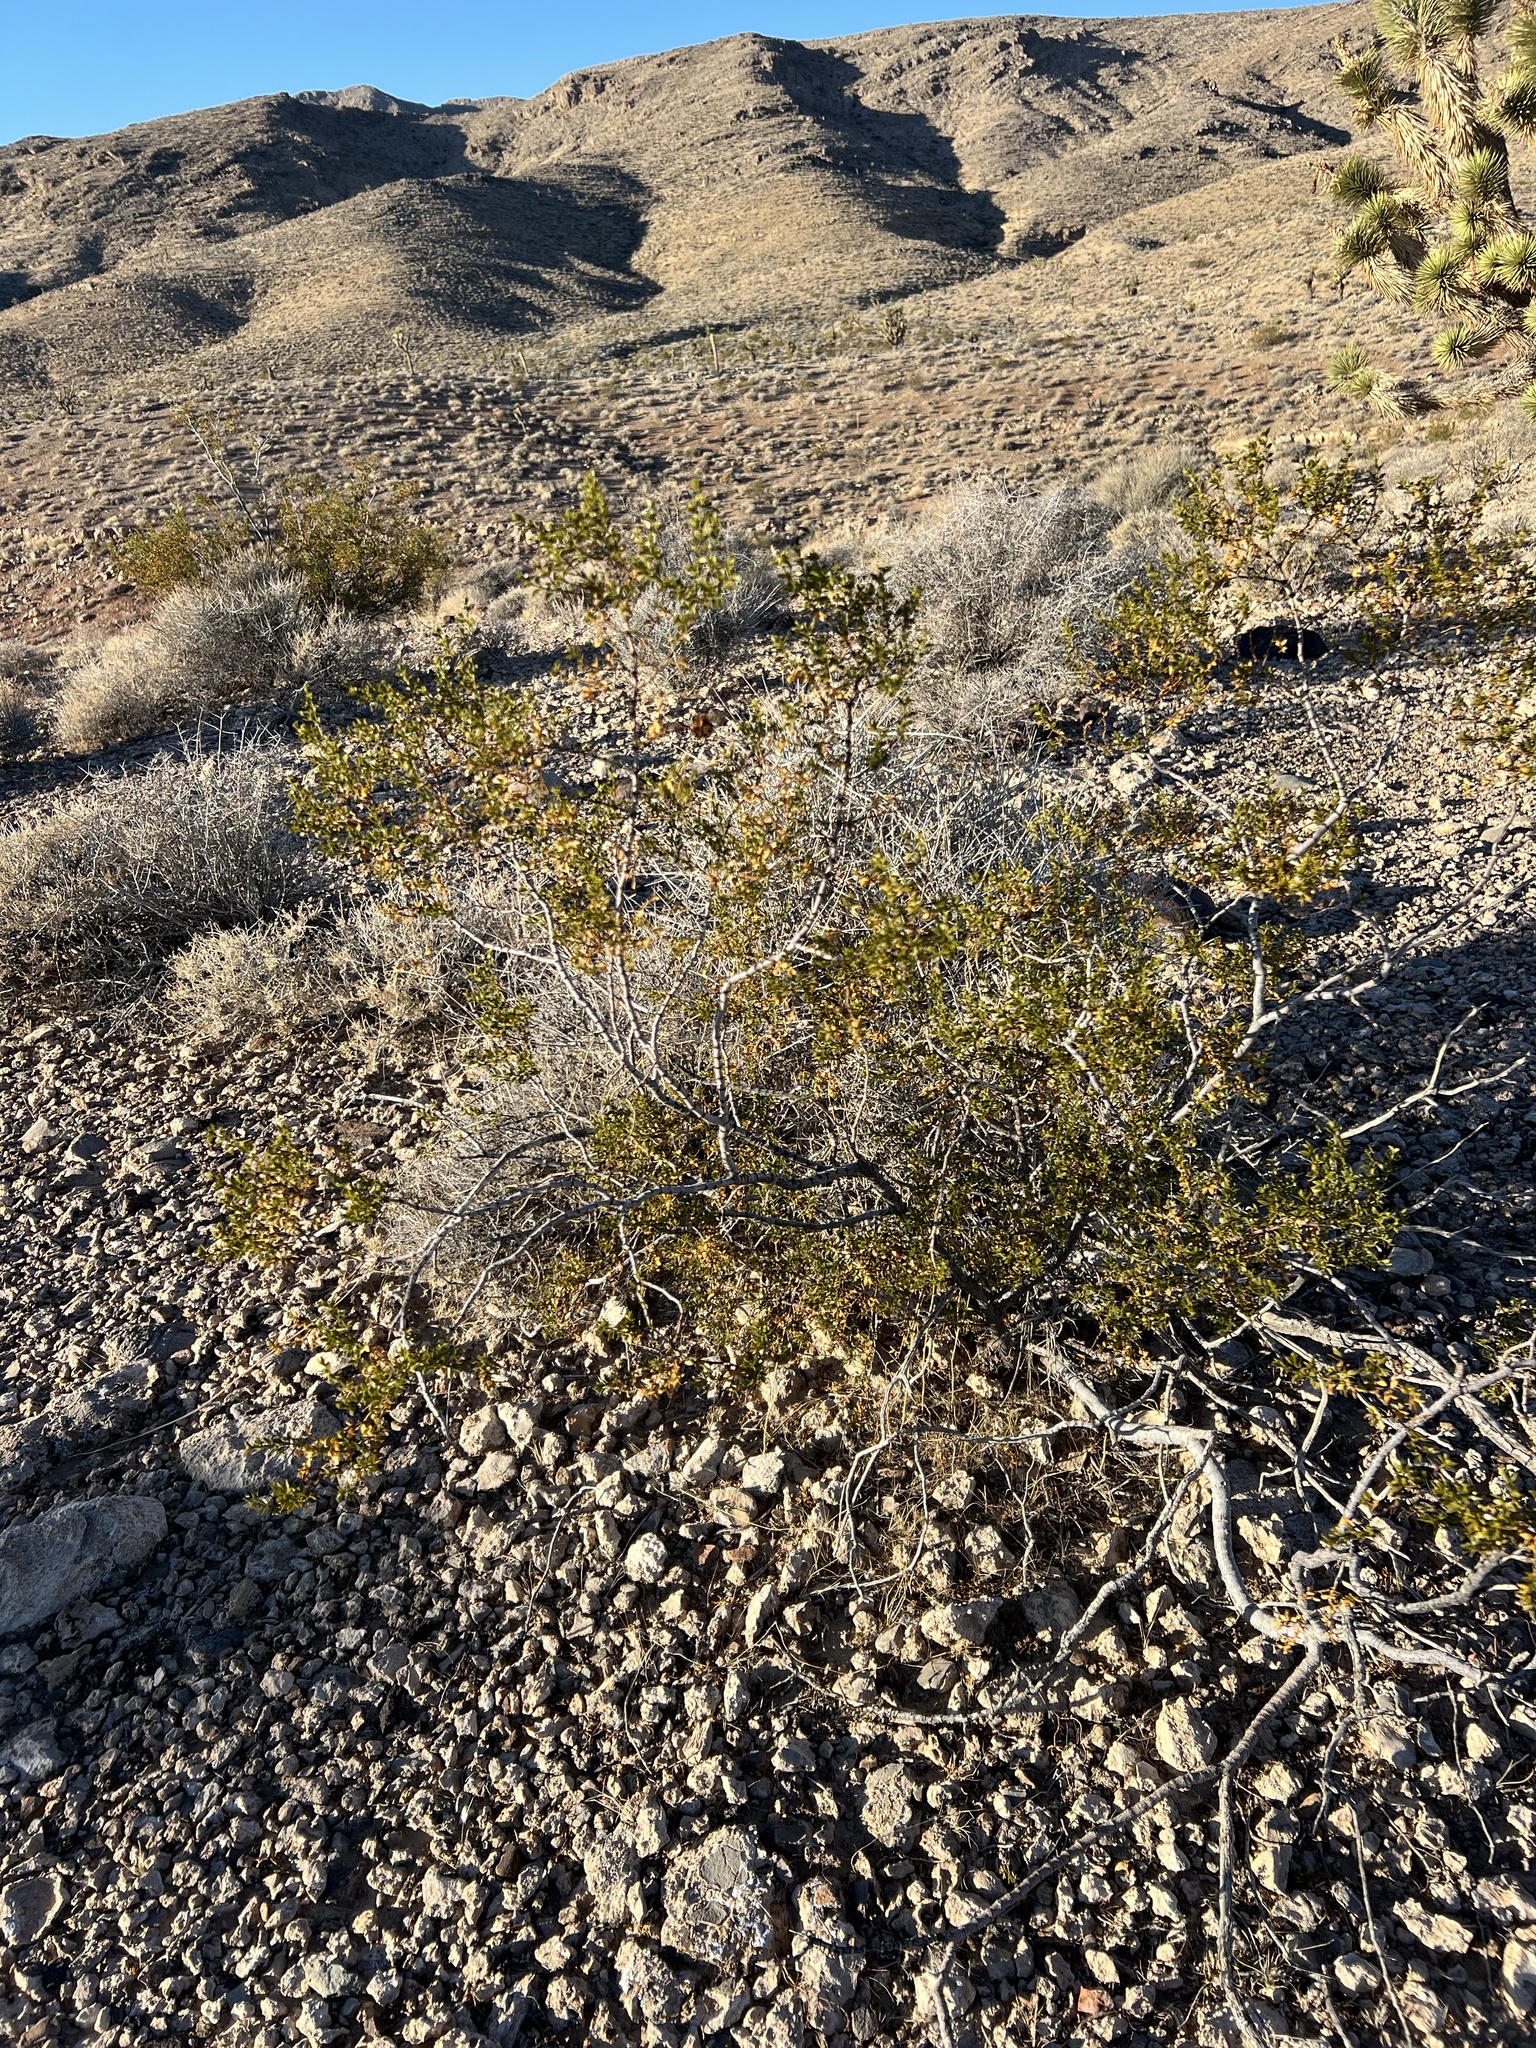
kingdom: Plantae
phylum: Tracheophyta
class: Magnoliopsida
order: Zygophyllales
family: Zygophyllaceae
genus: Larrea
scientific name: Larrea tridentata
